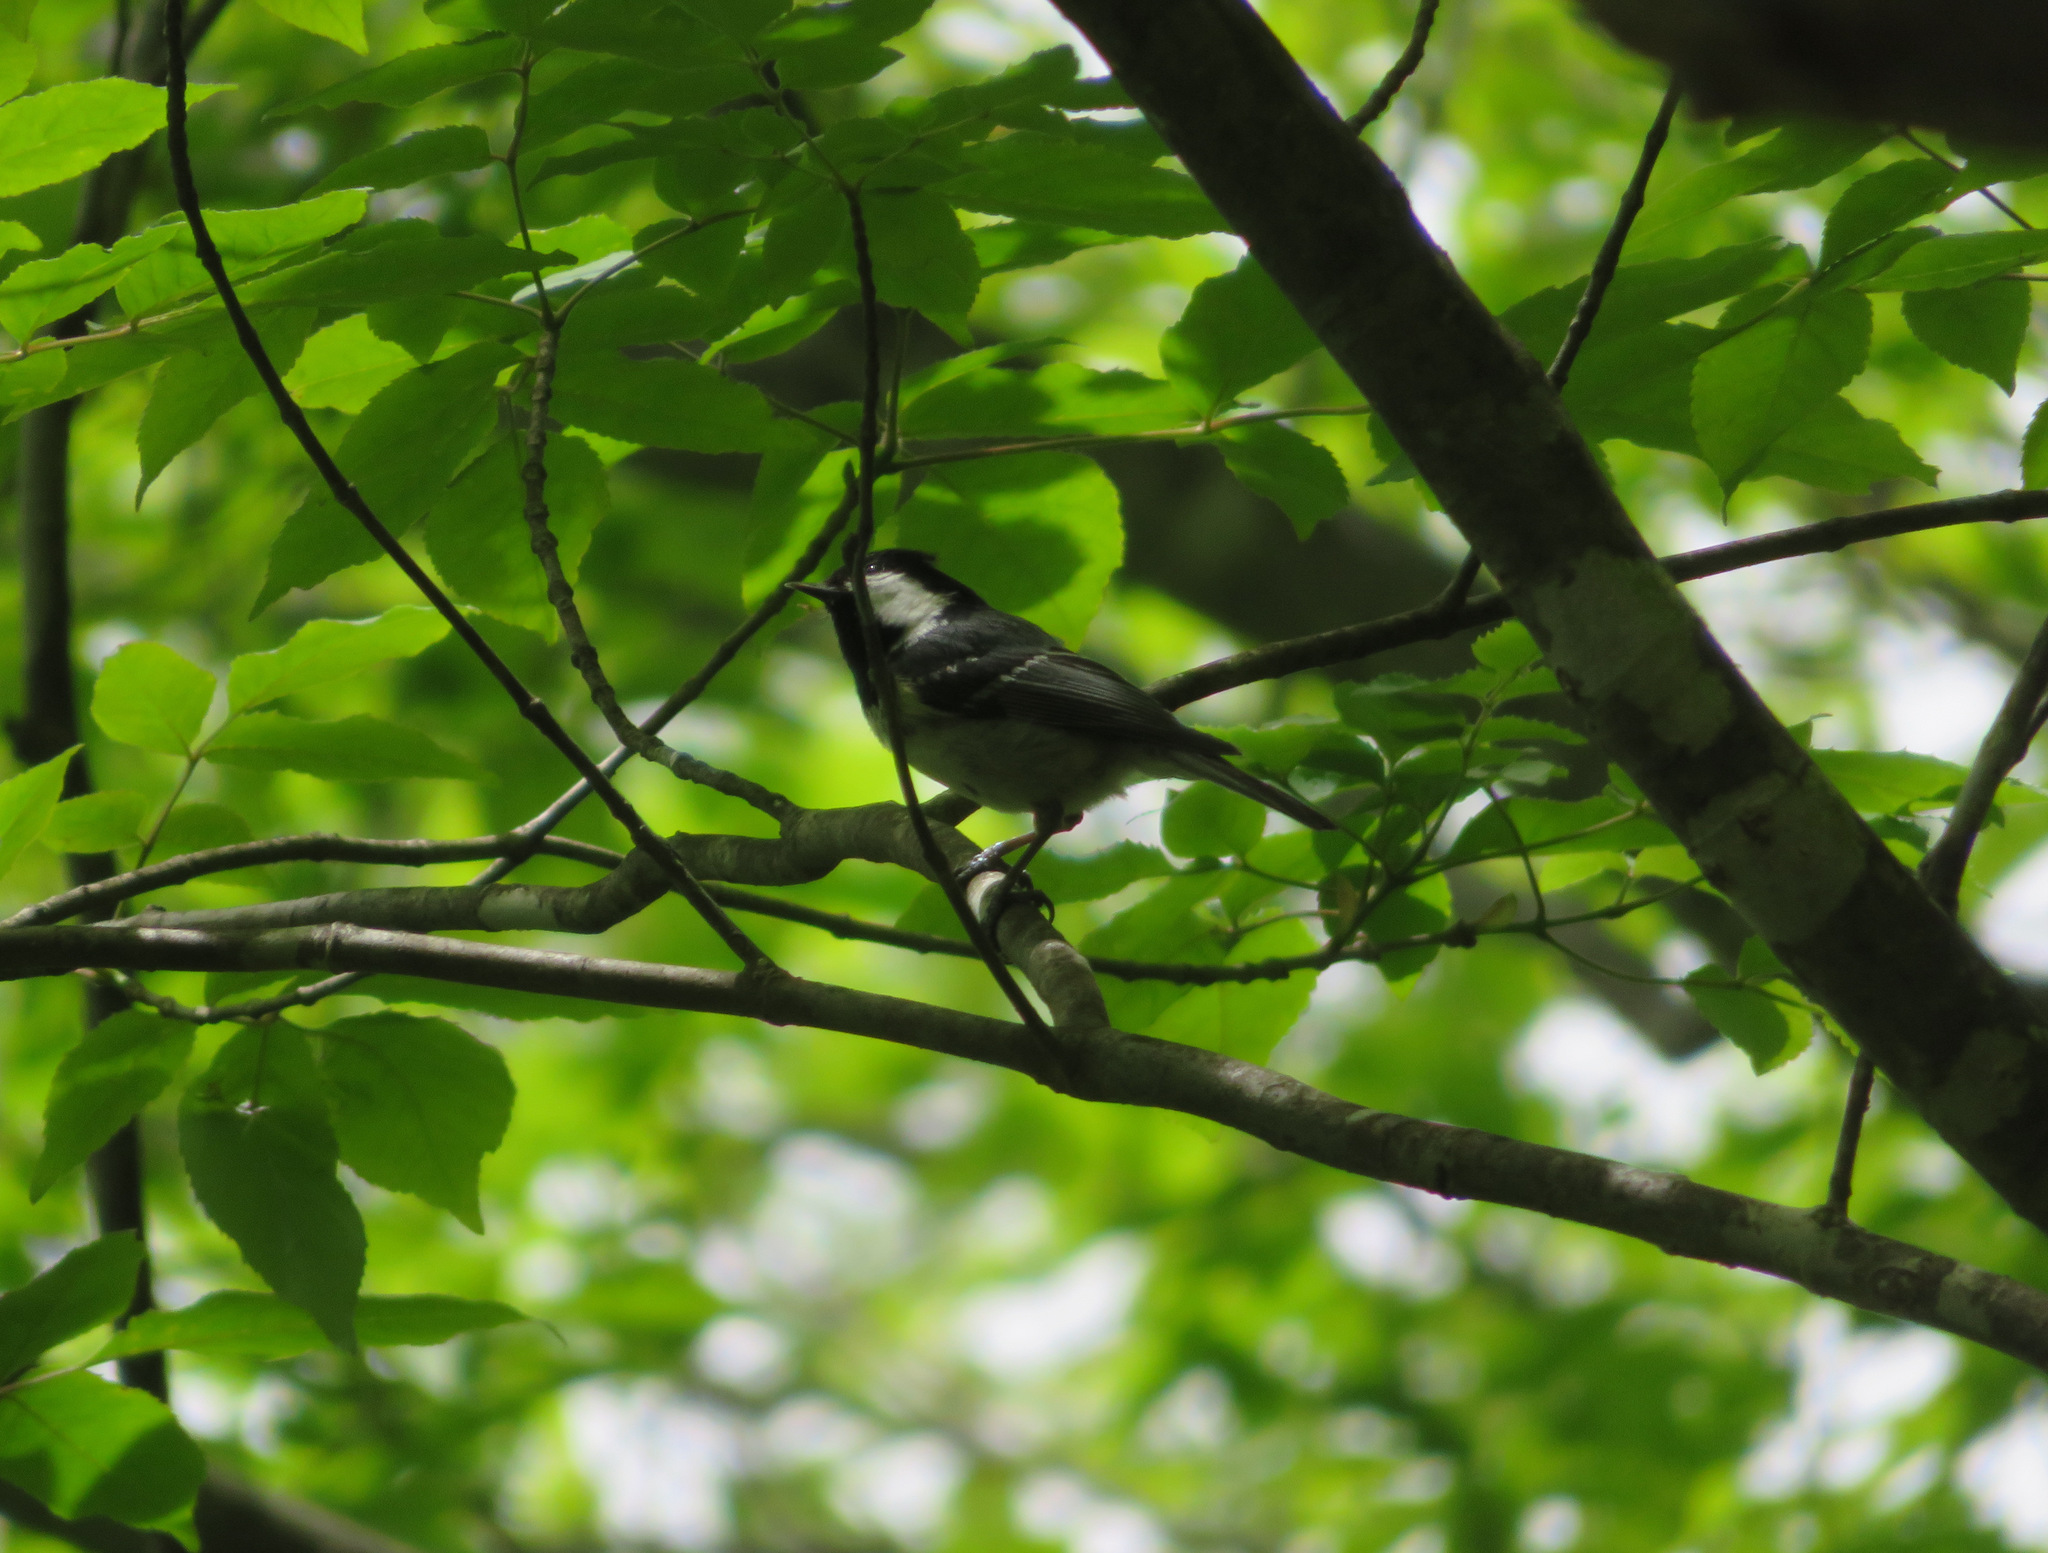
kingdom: Animalia
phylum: Chordata
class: Aves
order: Passeriformes
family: Paridae
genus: Periparus
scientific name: Periparus ater
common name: Coal tit
